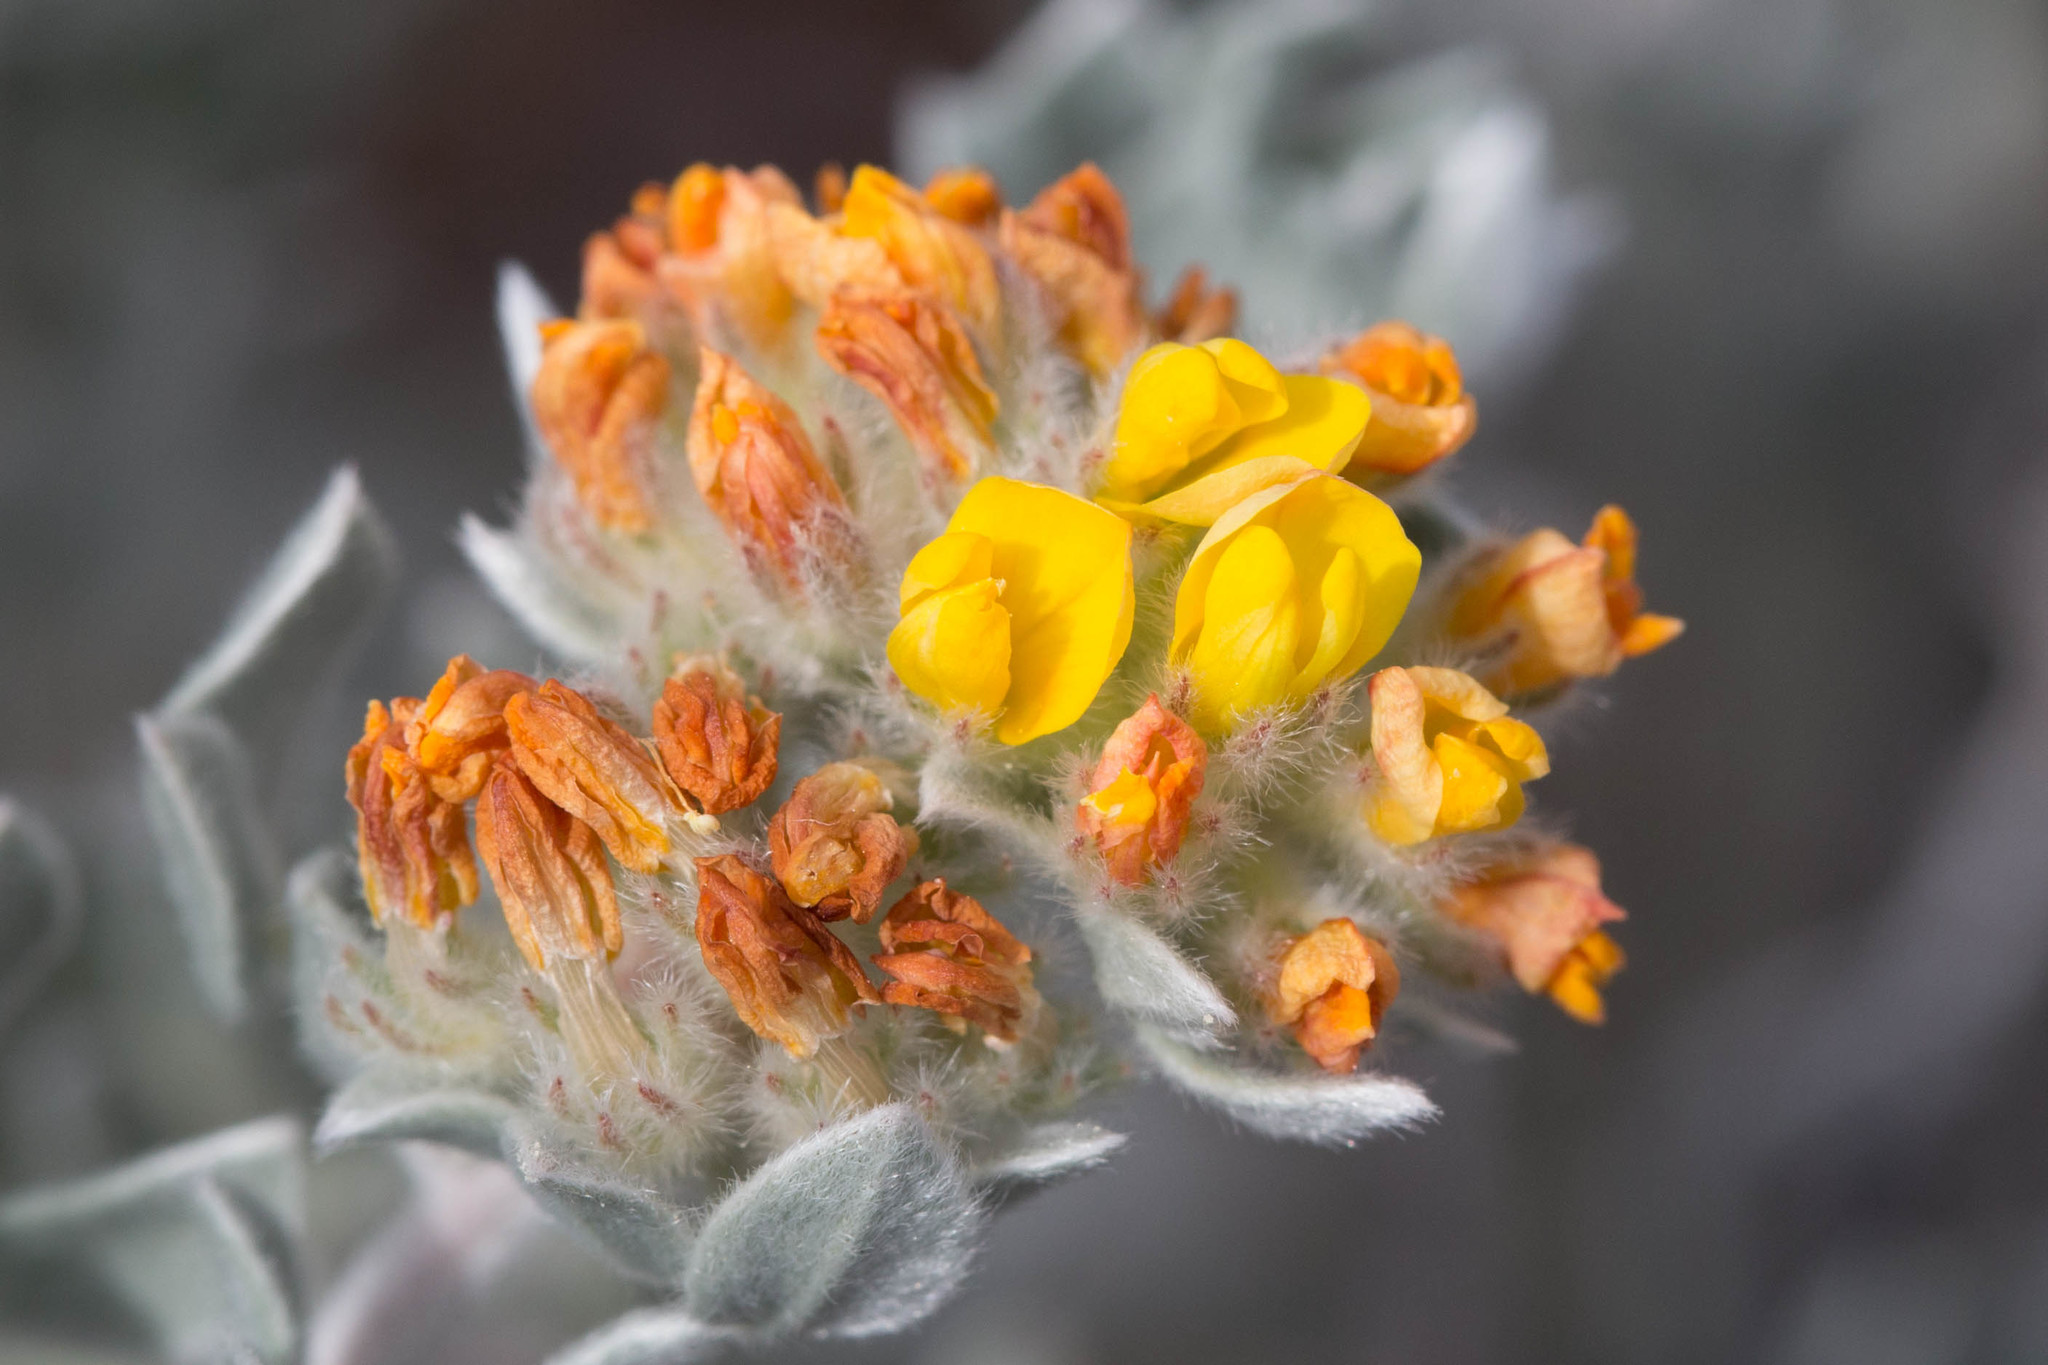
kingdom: Plantae
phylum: Tracheophyta
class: Magnoliopsida
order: Fabales
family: Fabaceae
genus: Acmispon
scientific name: Acmispon argophyllus
